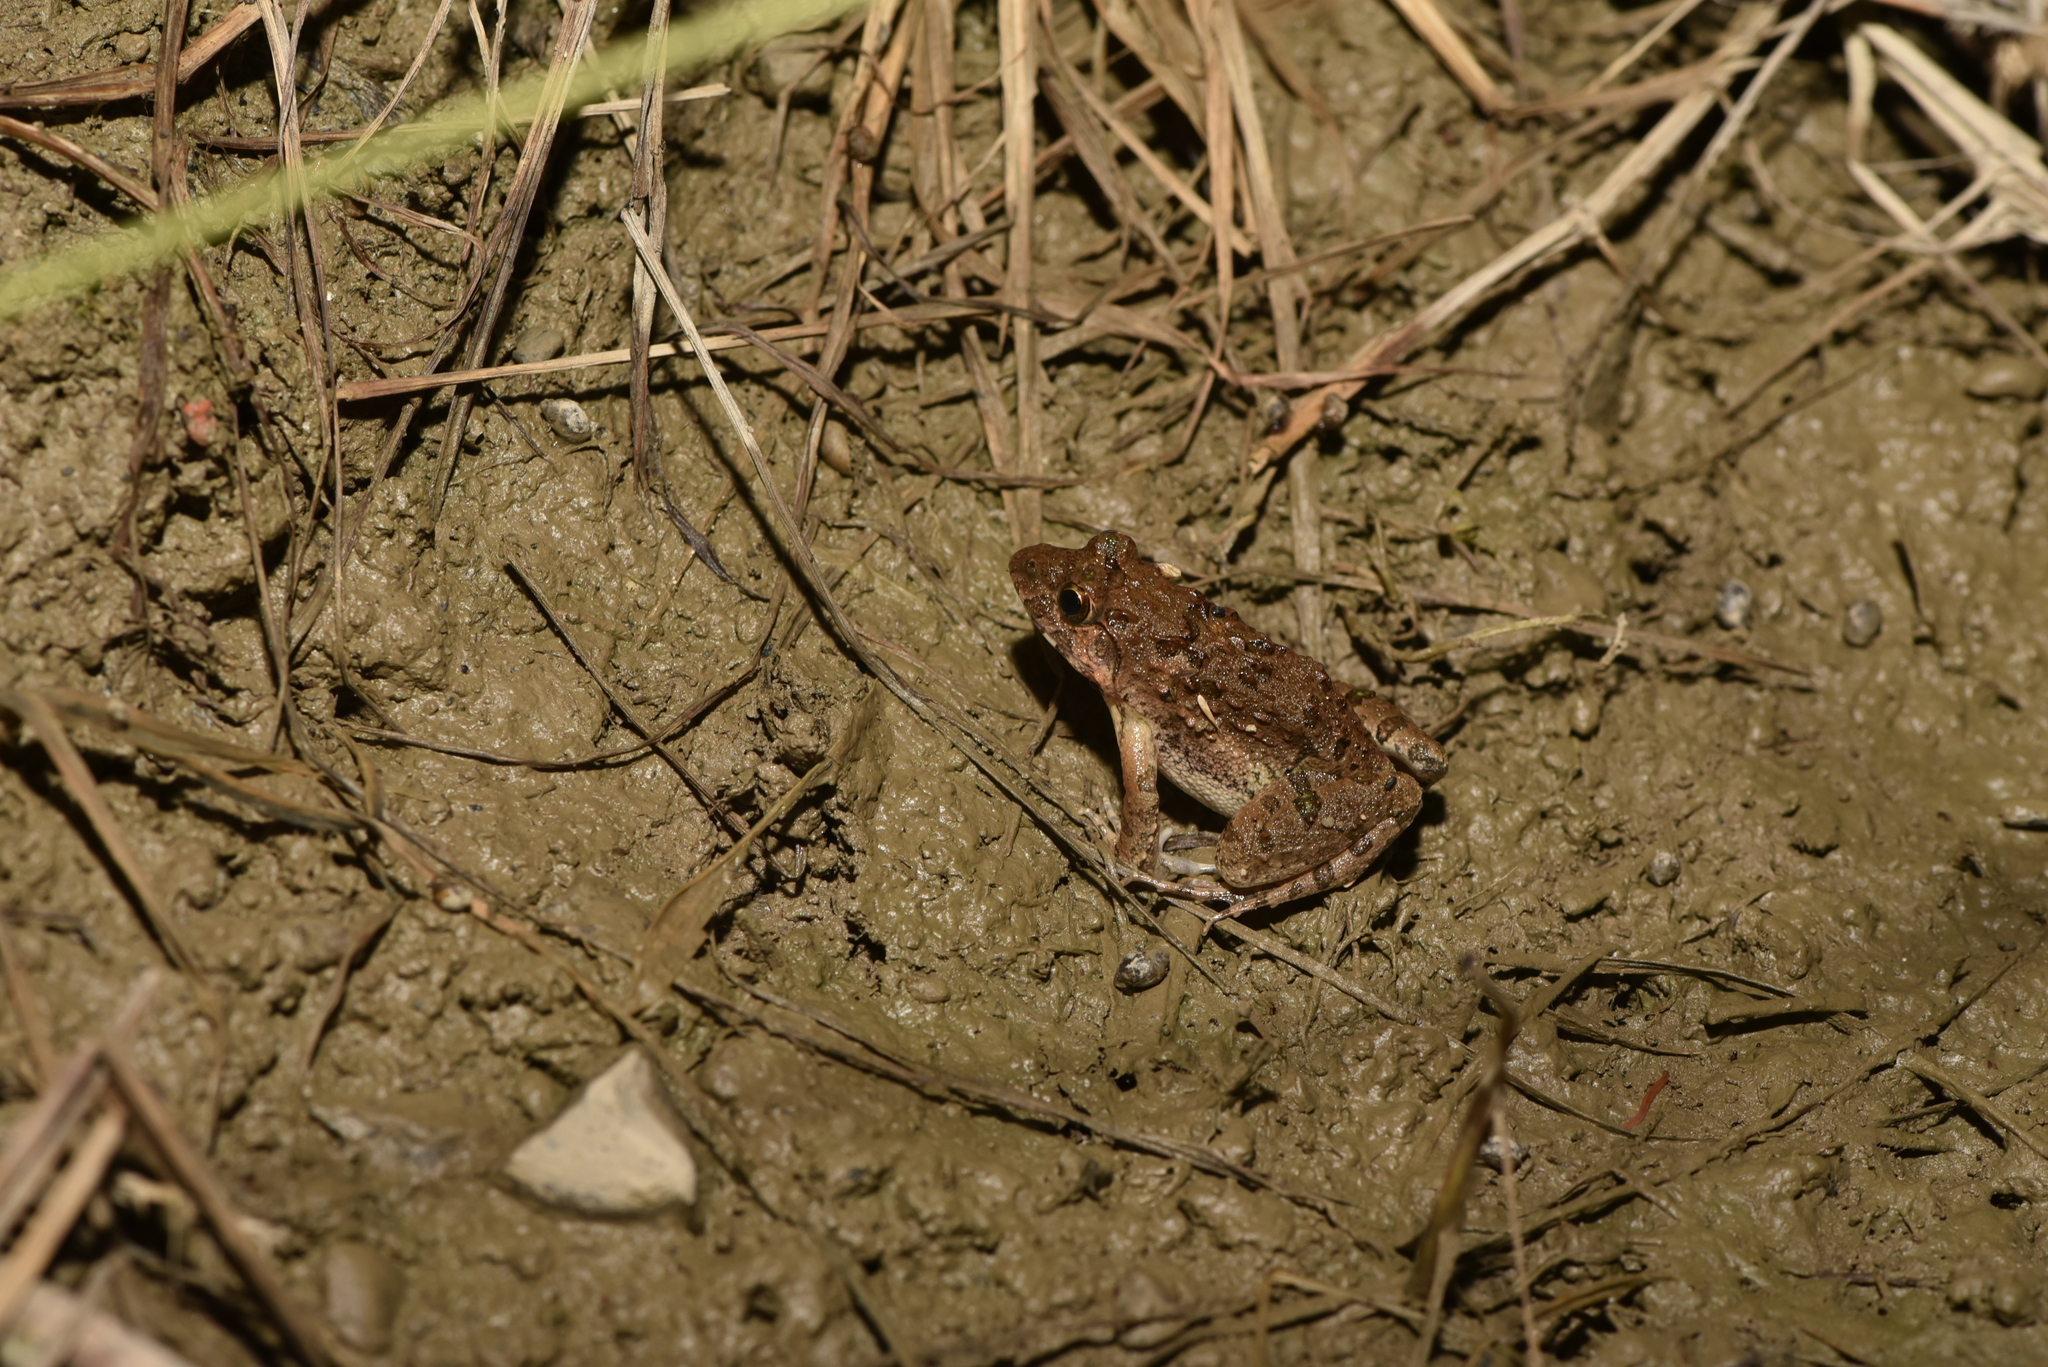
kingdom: Animalia
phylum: Chordata
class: Amphibia
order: Anura
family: Dicroglossidae
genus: Fejervarya
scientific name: Fejervarya limnocharis
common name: Asian grass frog/common pond frog/field frog/grass frog/indian rice frog
